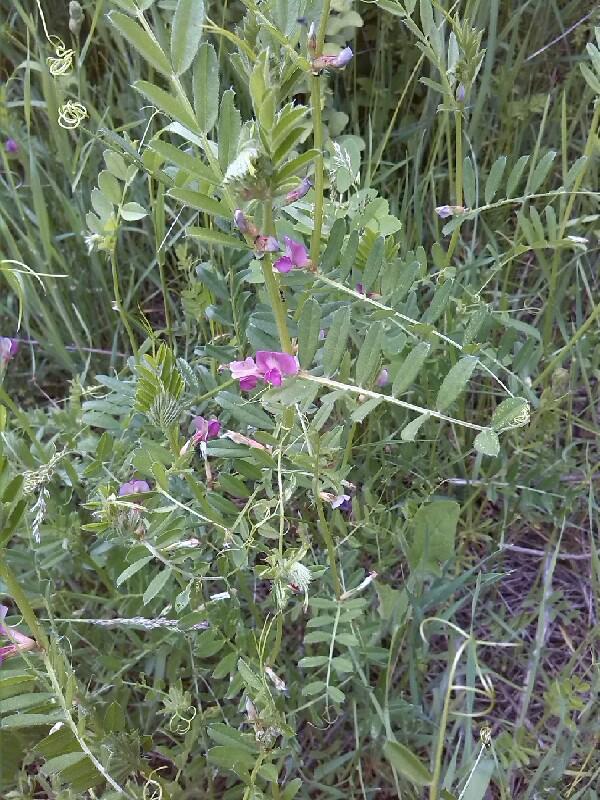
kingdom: Plantae
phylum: Tracheophyta
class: Magnoliopsida
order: Fabales
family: Fabaceae
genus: Vicia
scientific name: Vicia sativa
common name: Garden vetch
